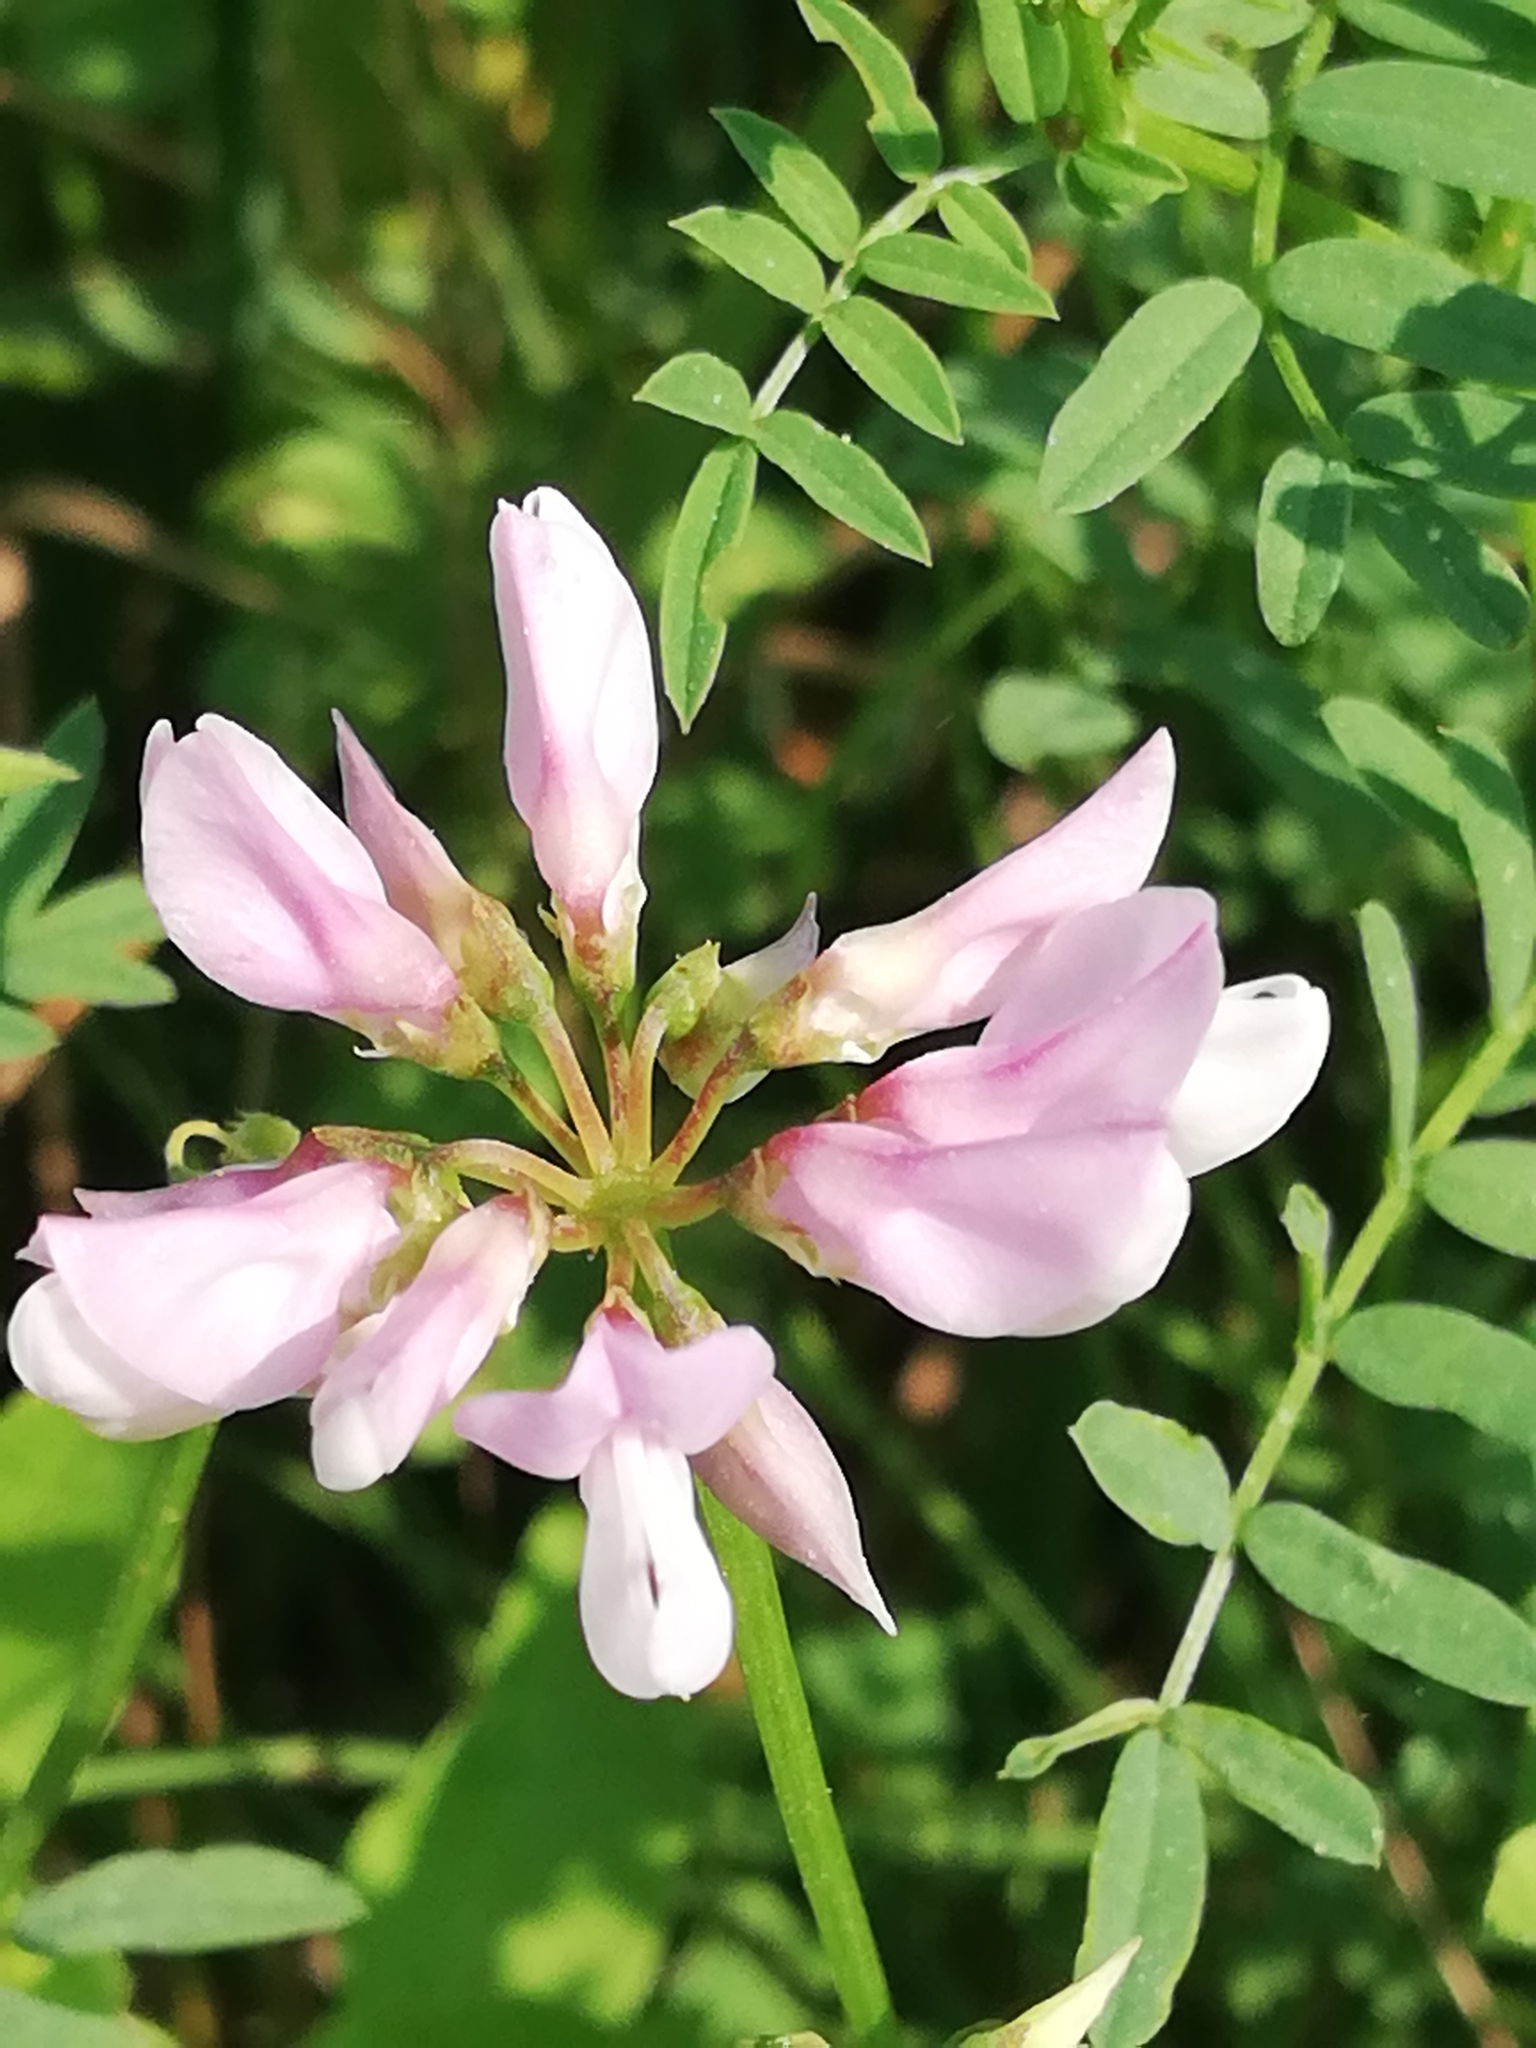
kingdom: Plantae
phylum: Tracheophyta
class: Magnoliopsida
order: Fabales
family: Fabaceae
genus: Coronilla
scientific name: Coronilla varia
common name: Crownvetch
